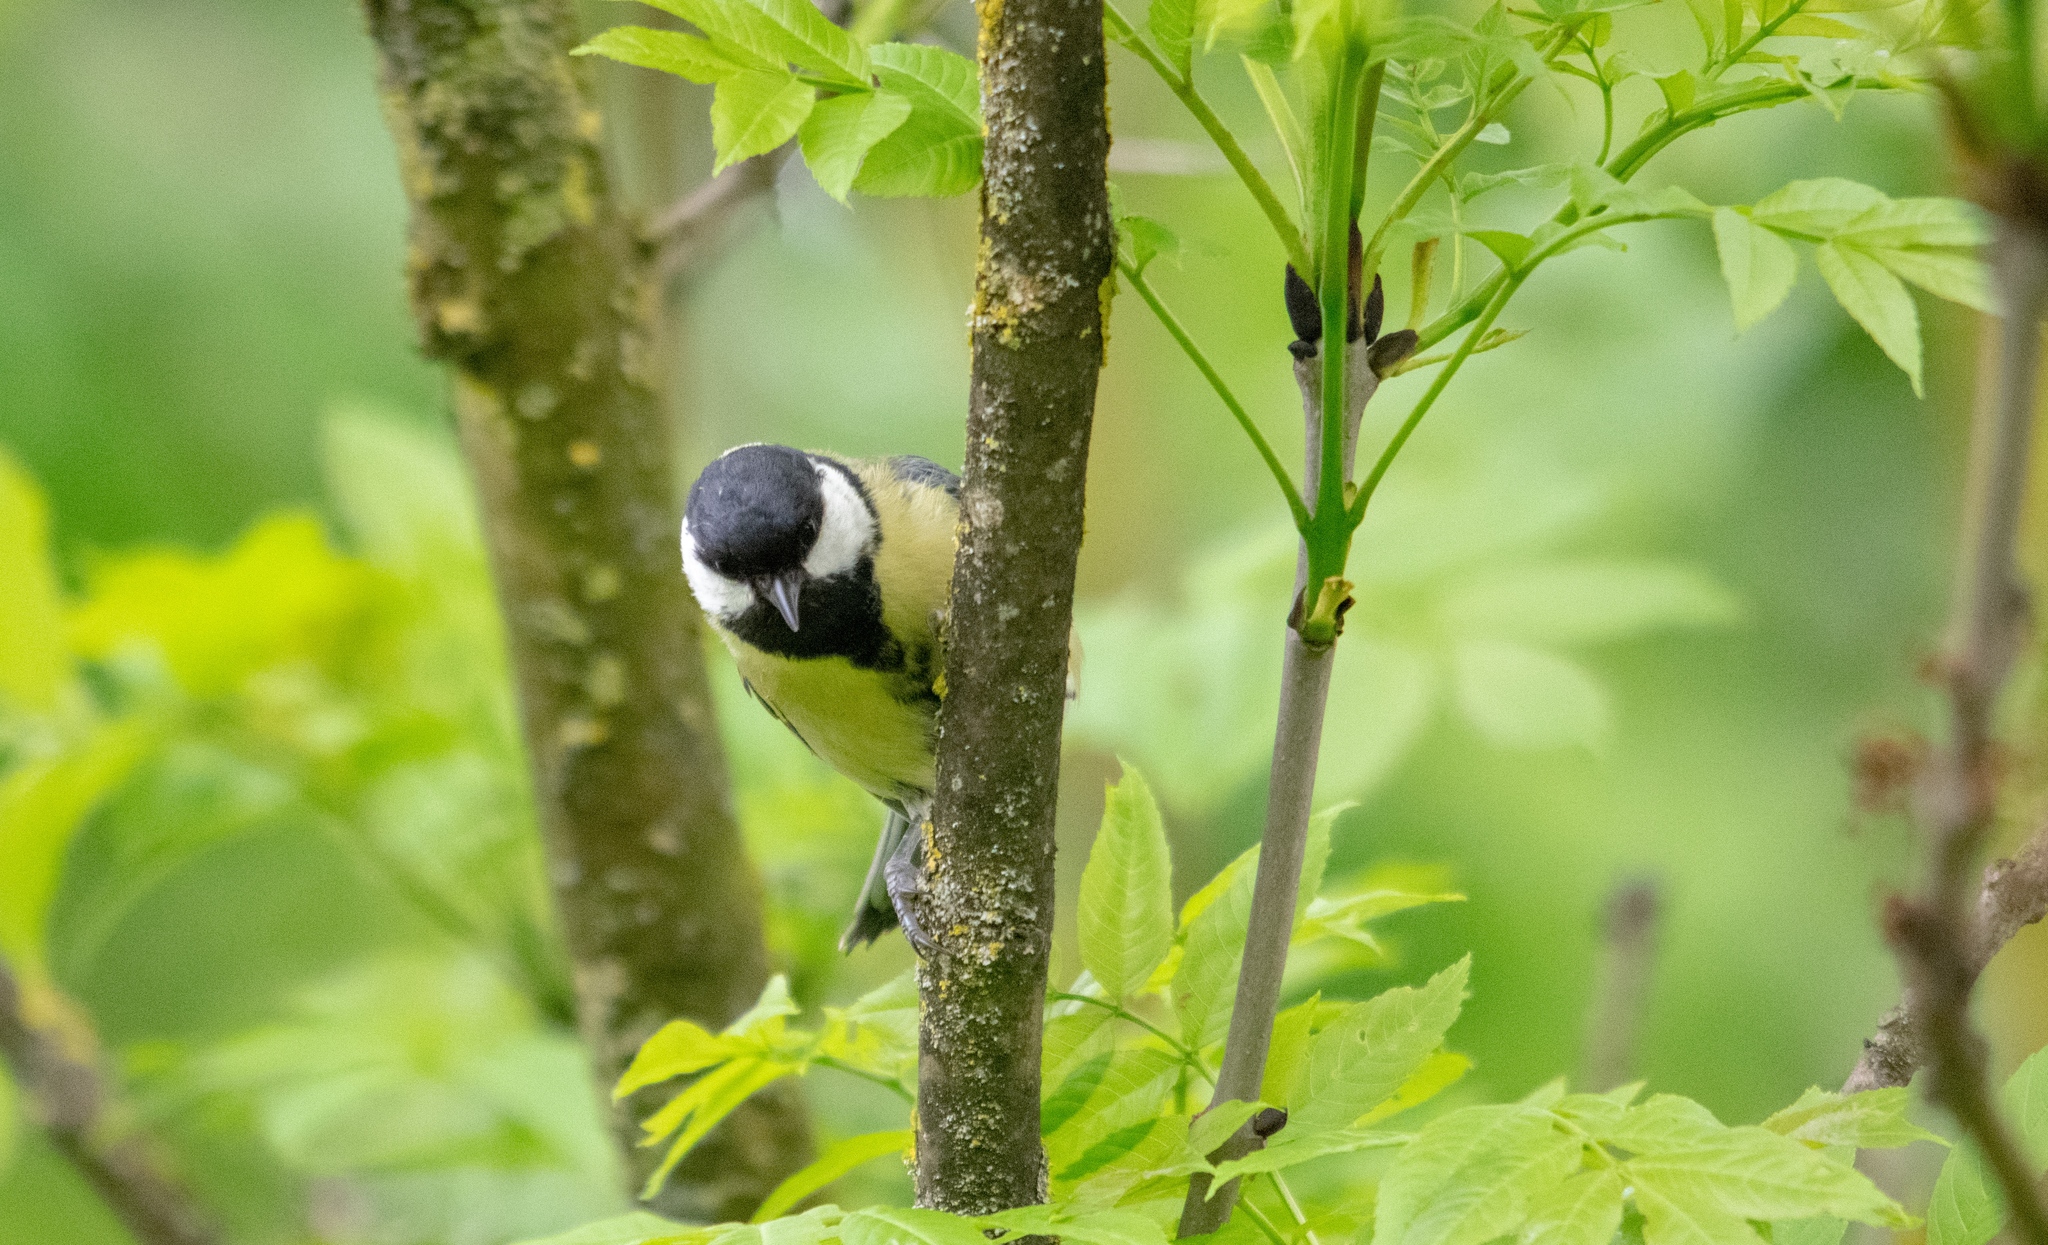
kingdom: Animalia
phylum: Chordata
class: Aves
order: Passeriformes
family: Paridae
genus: Parus
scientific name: Parus major
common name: Great tit
